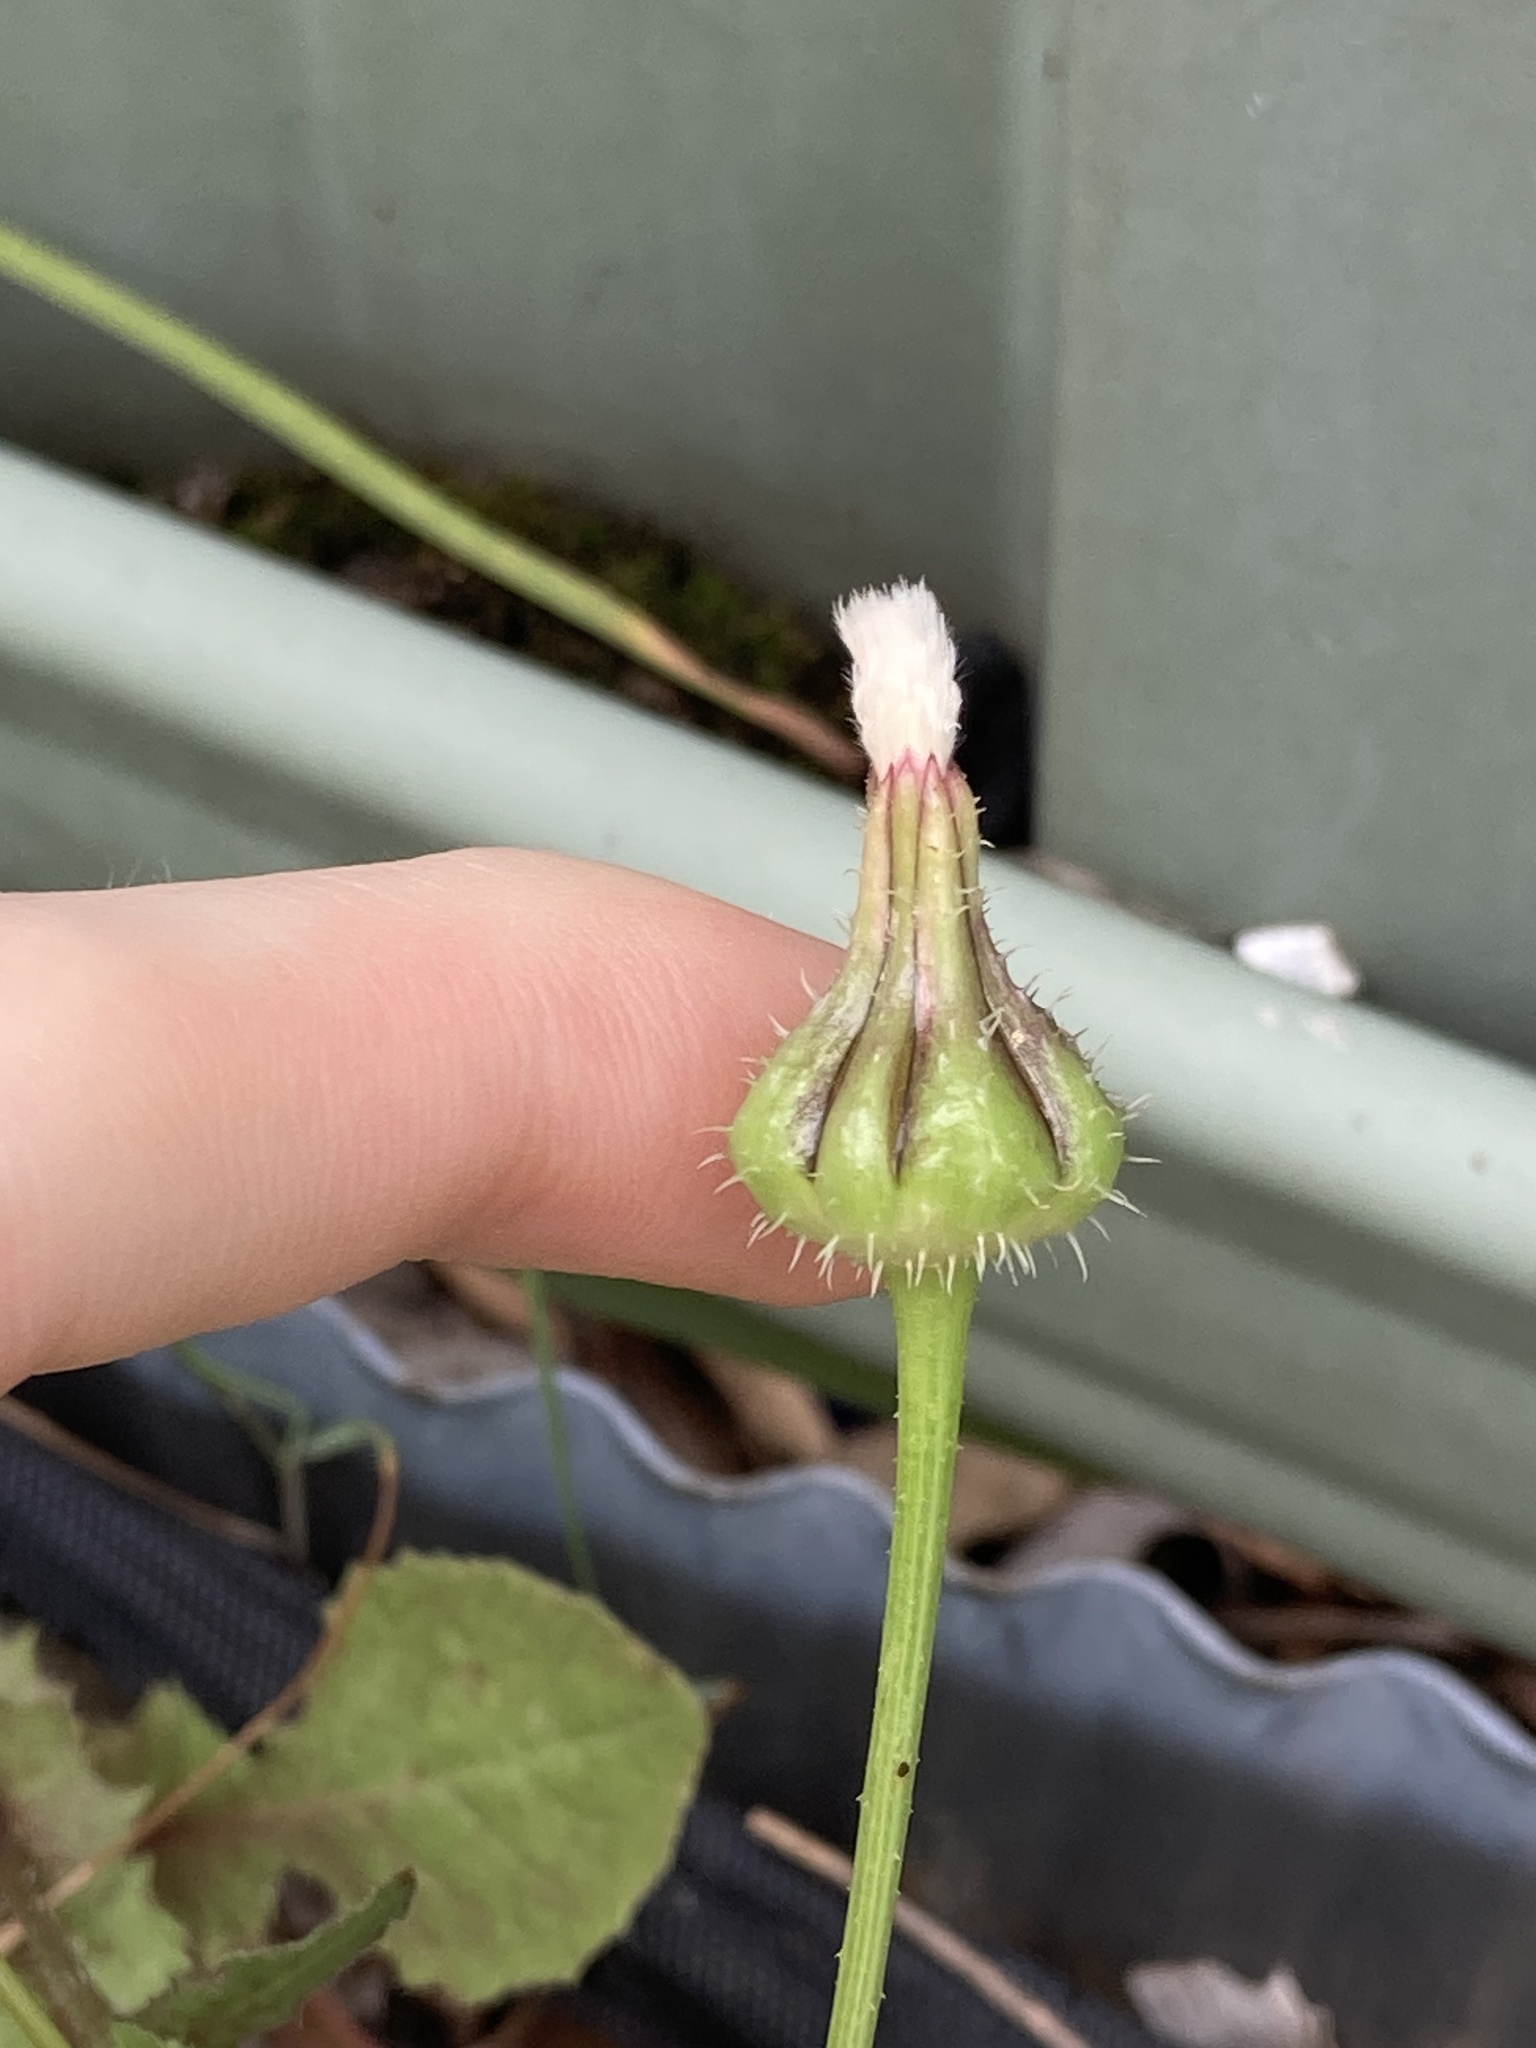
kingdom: Plantae
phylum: Tracheophyta
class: Magnoliopsida
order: Asterales
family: Asteraceae
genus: Urospermum
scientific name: Urospermum picroides
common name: False hawkbit
